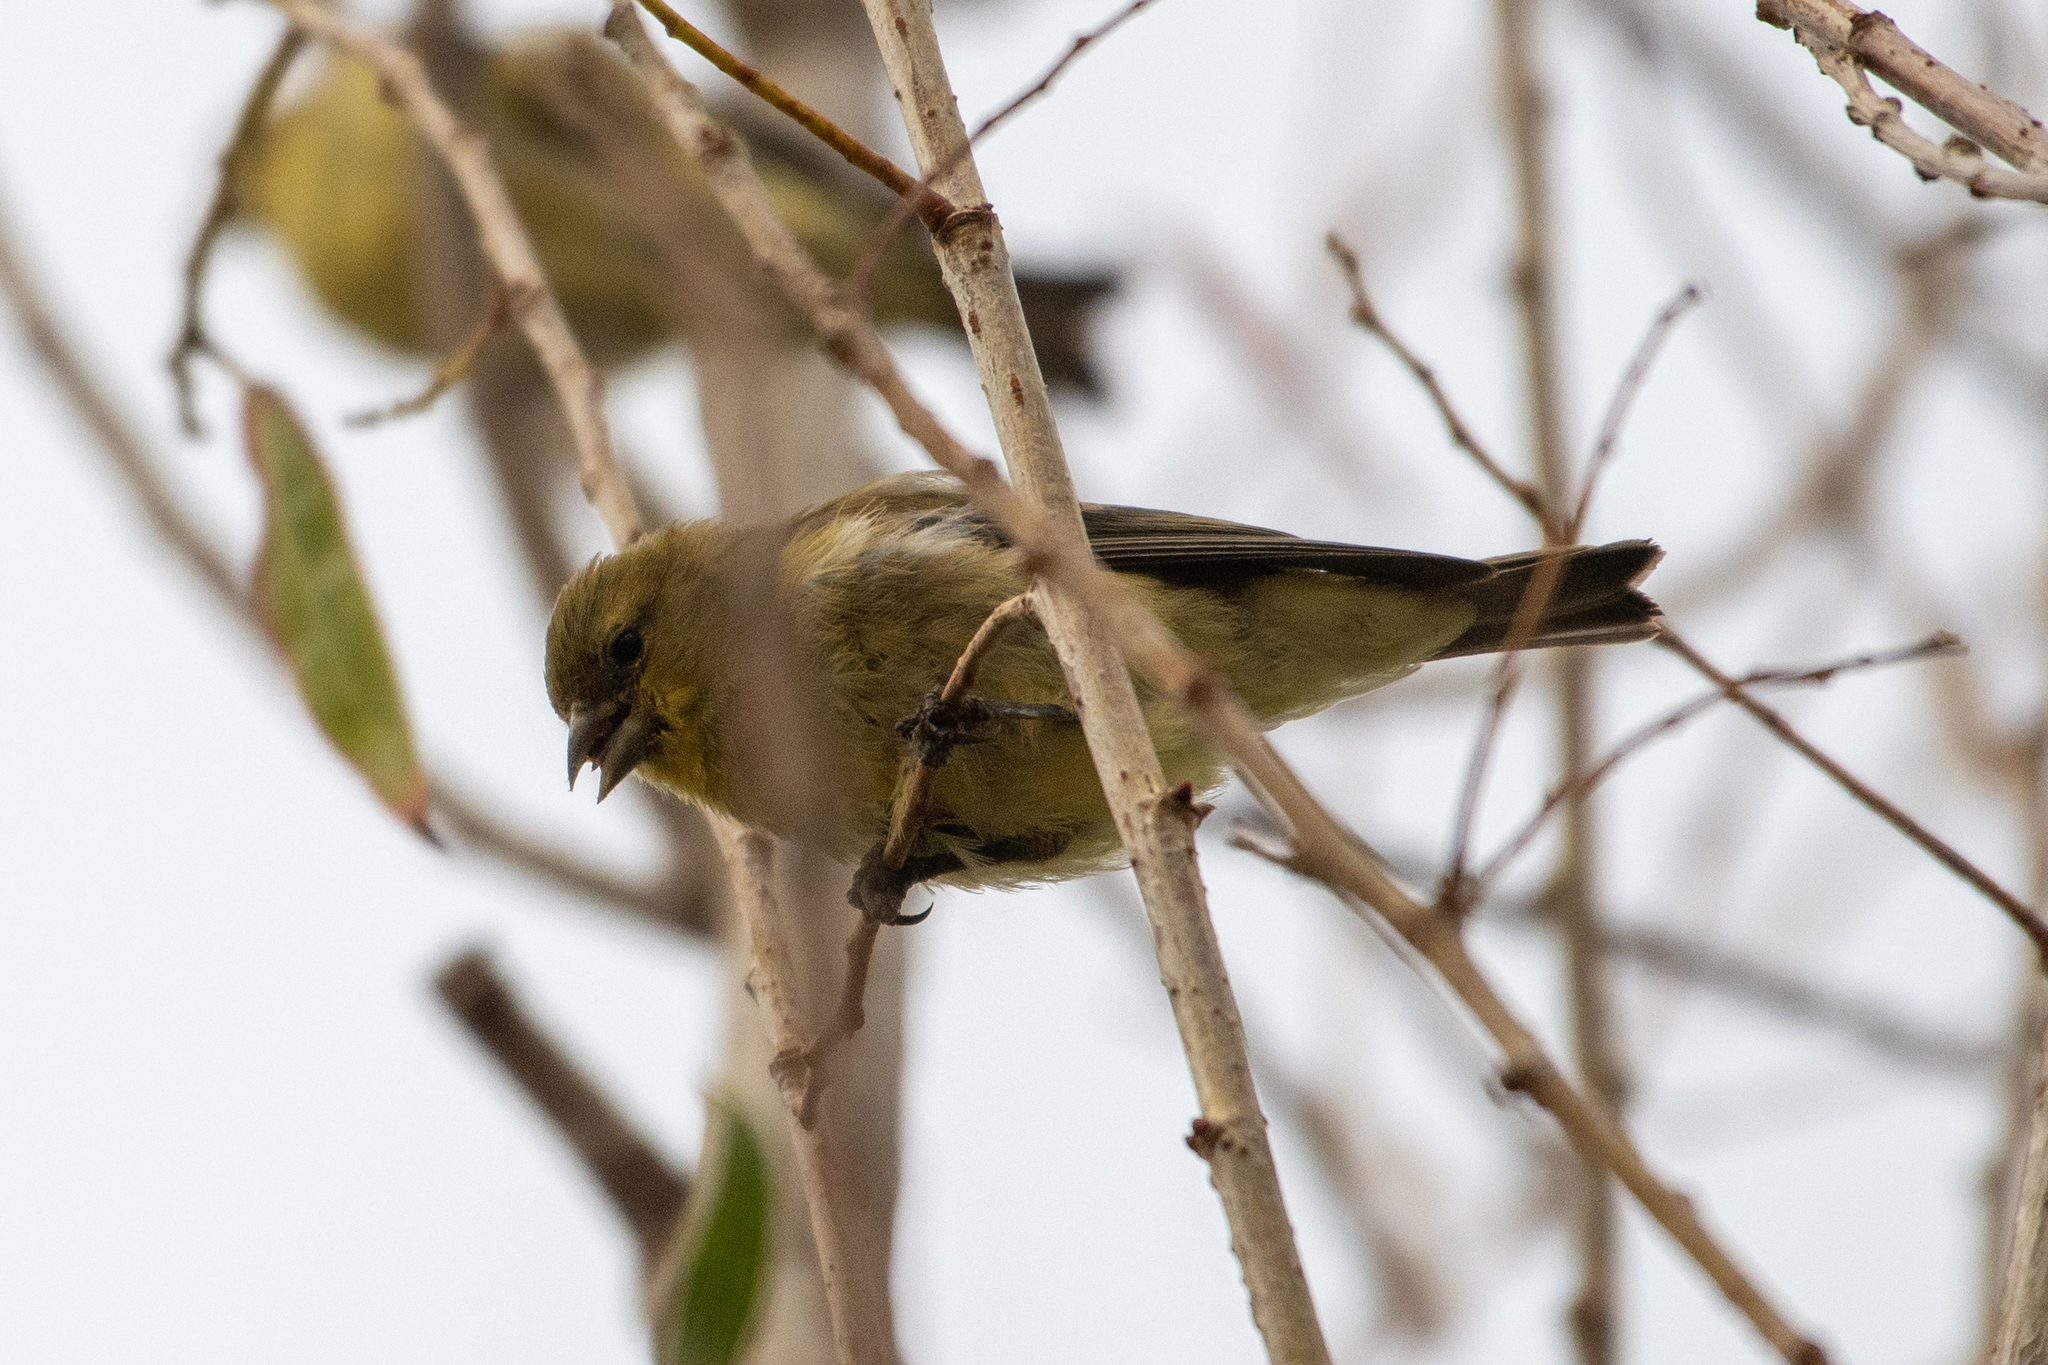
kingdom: Animalia
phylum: Chordata
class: Aves
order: Passeriformes
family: Fringillidae
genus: Spinus
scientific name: Spinus psaltria
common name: Lesser goldfinch
